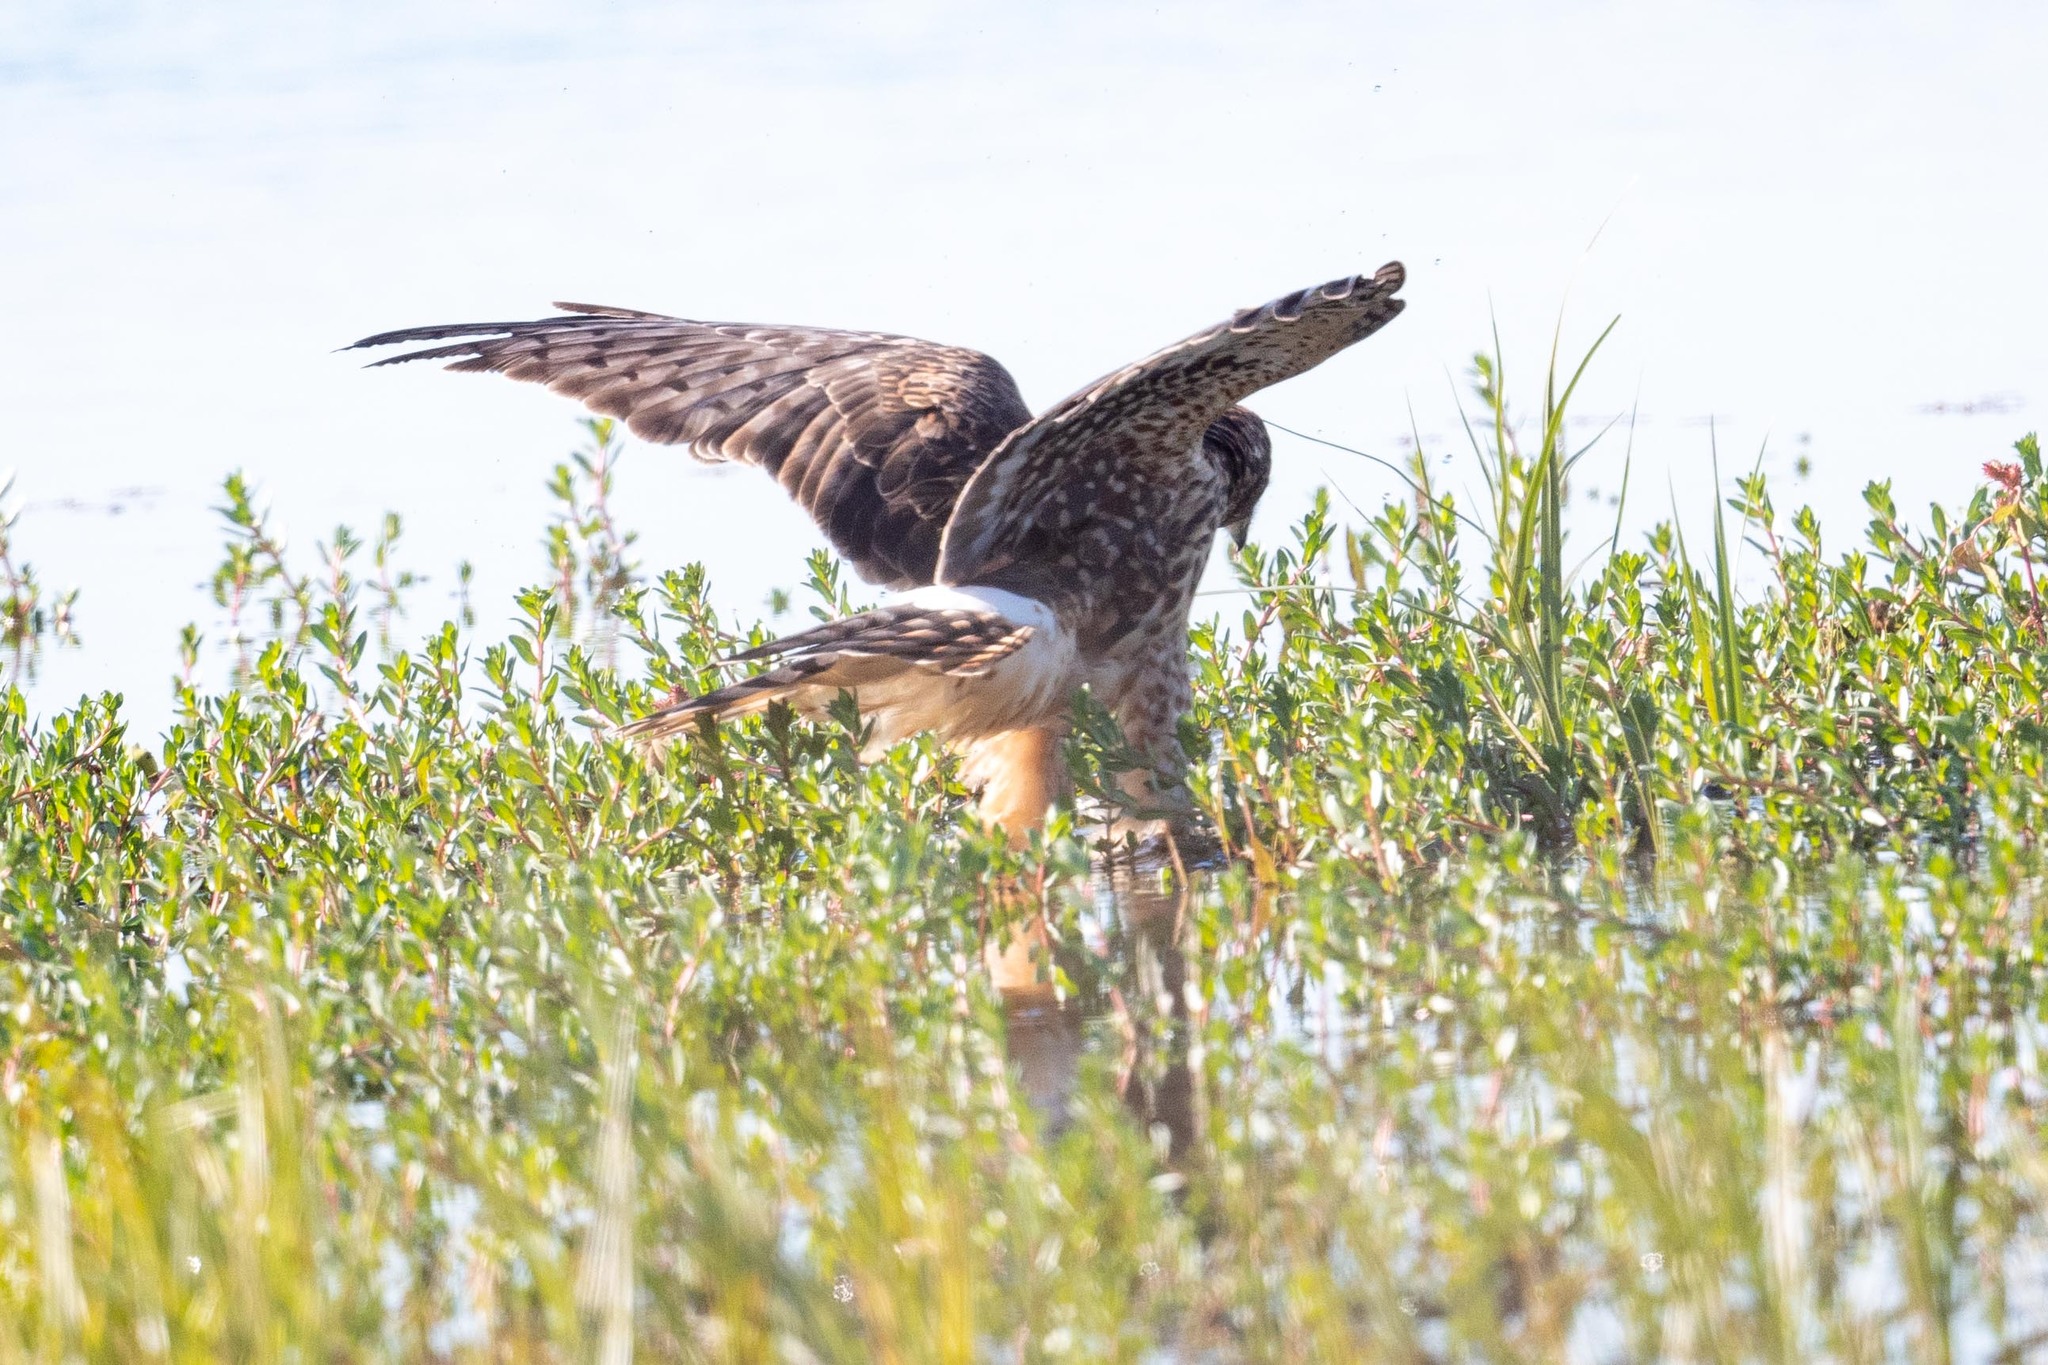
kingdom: Animalia
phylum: Chordata
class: Aves
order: Accipitriformes
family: Accipitridae
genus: Circus
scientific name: Circus cyaneus
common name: Hen harrier
